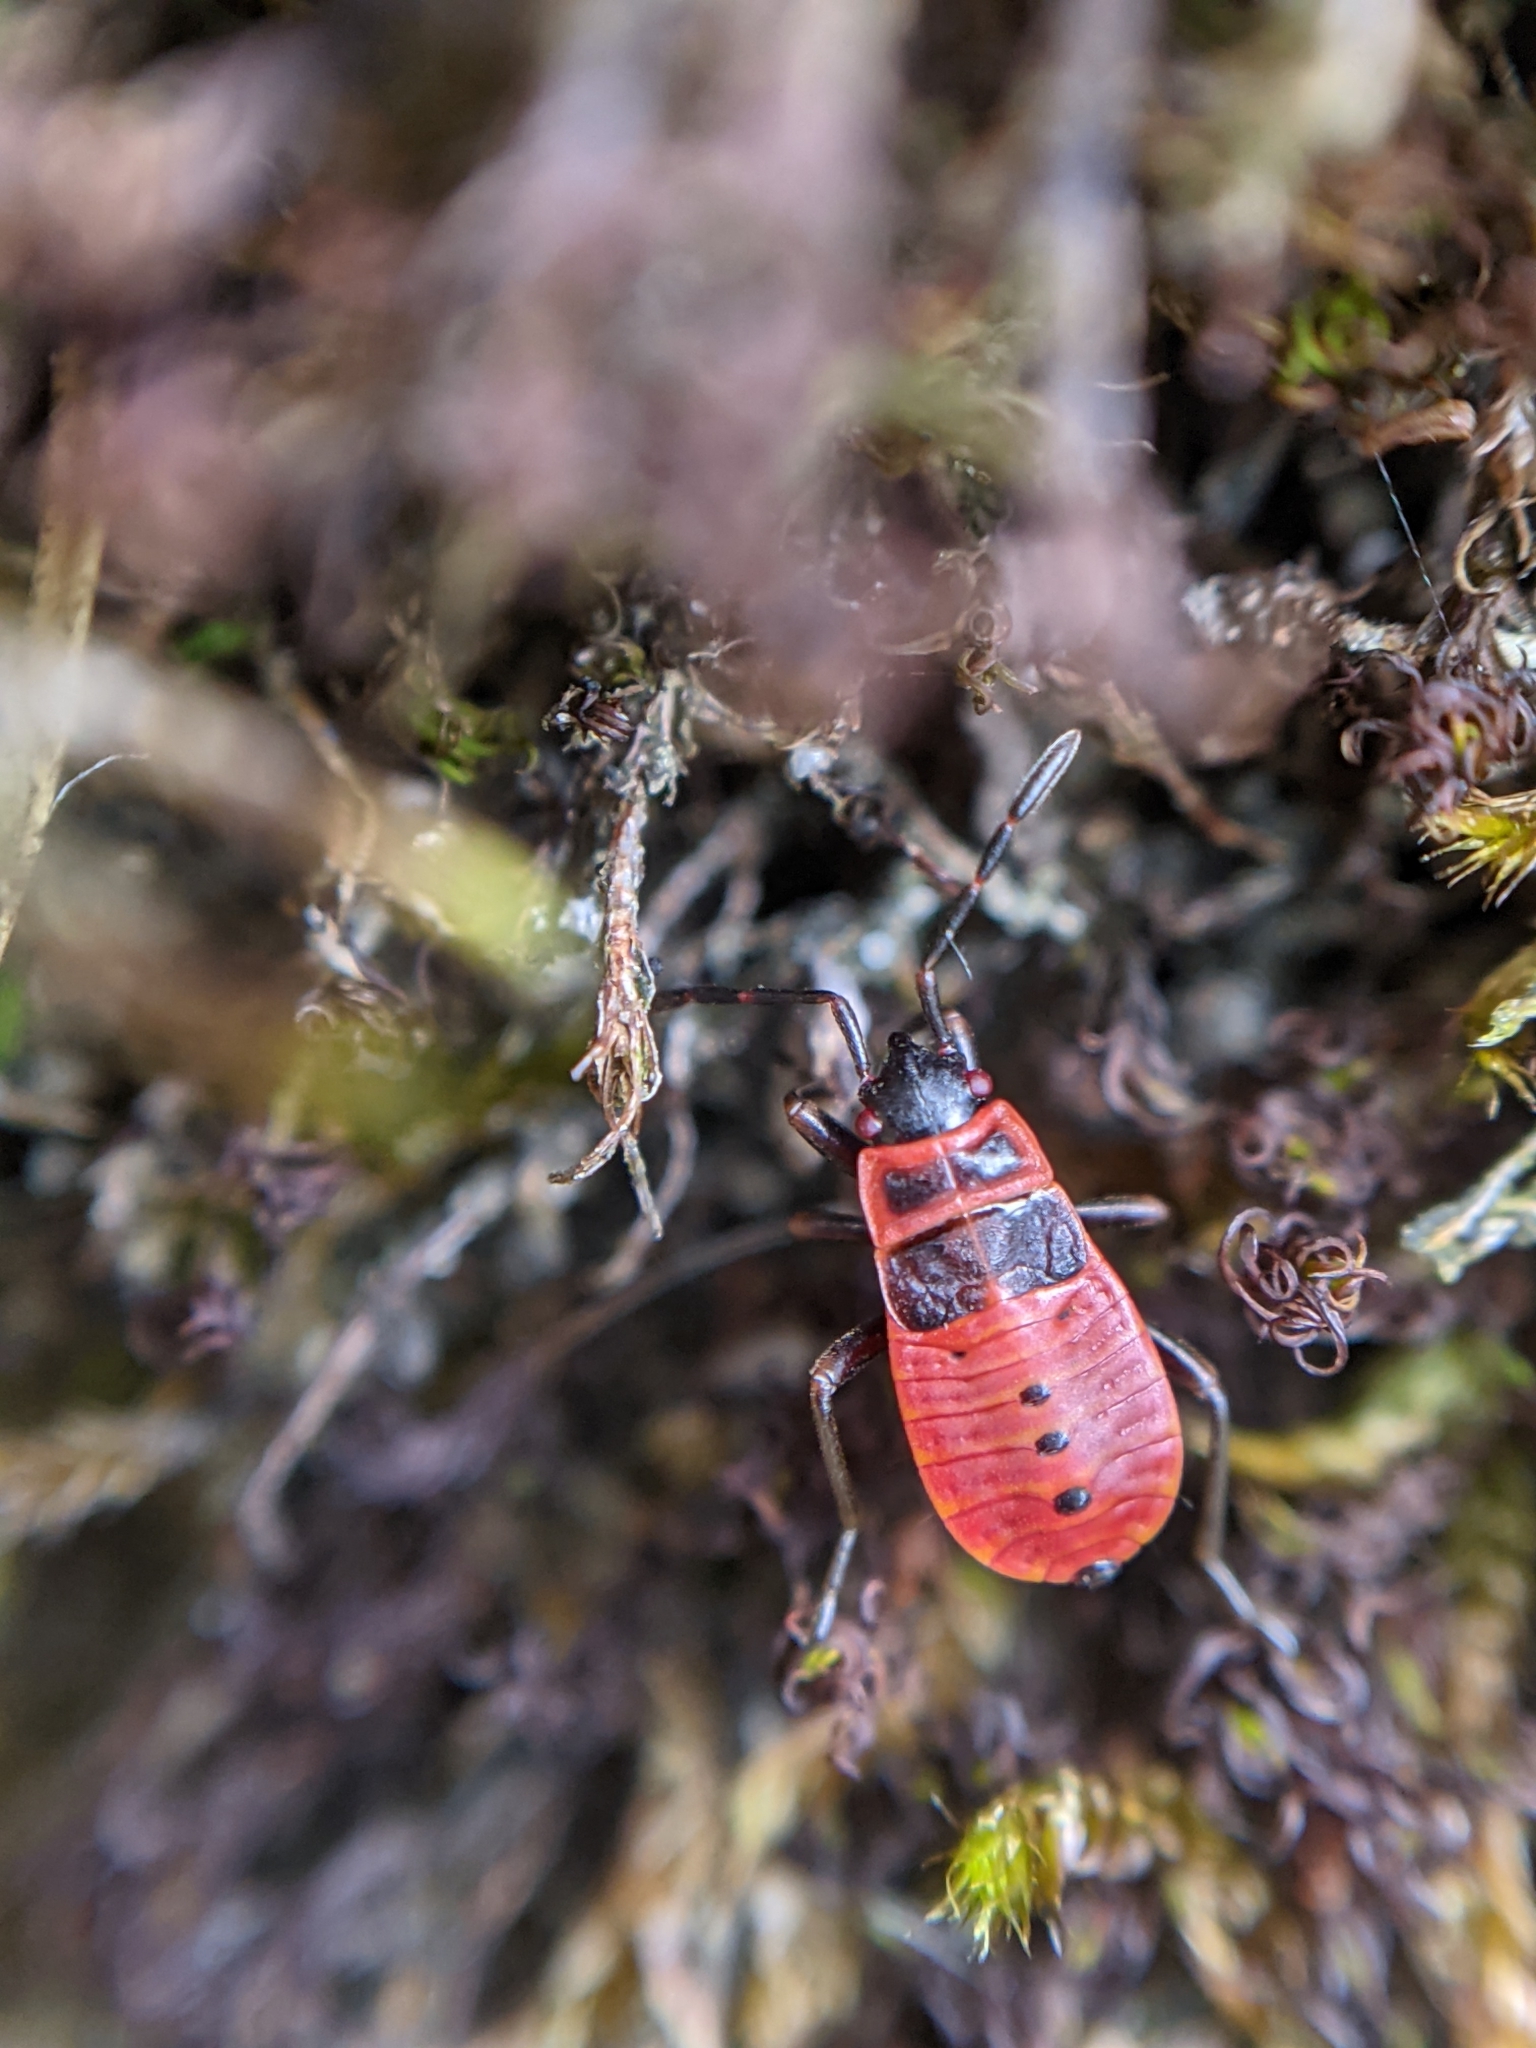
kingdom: Animalia
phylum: Arthropoda
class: Insecta
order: Hemiptera
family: Pyrrhocoridae
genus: Pyrrhocoris
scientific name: Pyrrhocoris apterus
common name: Firebug
